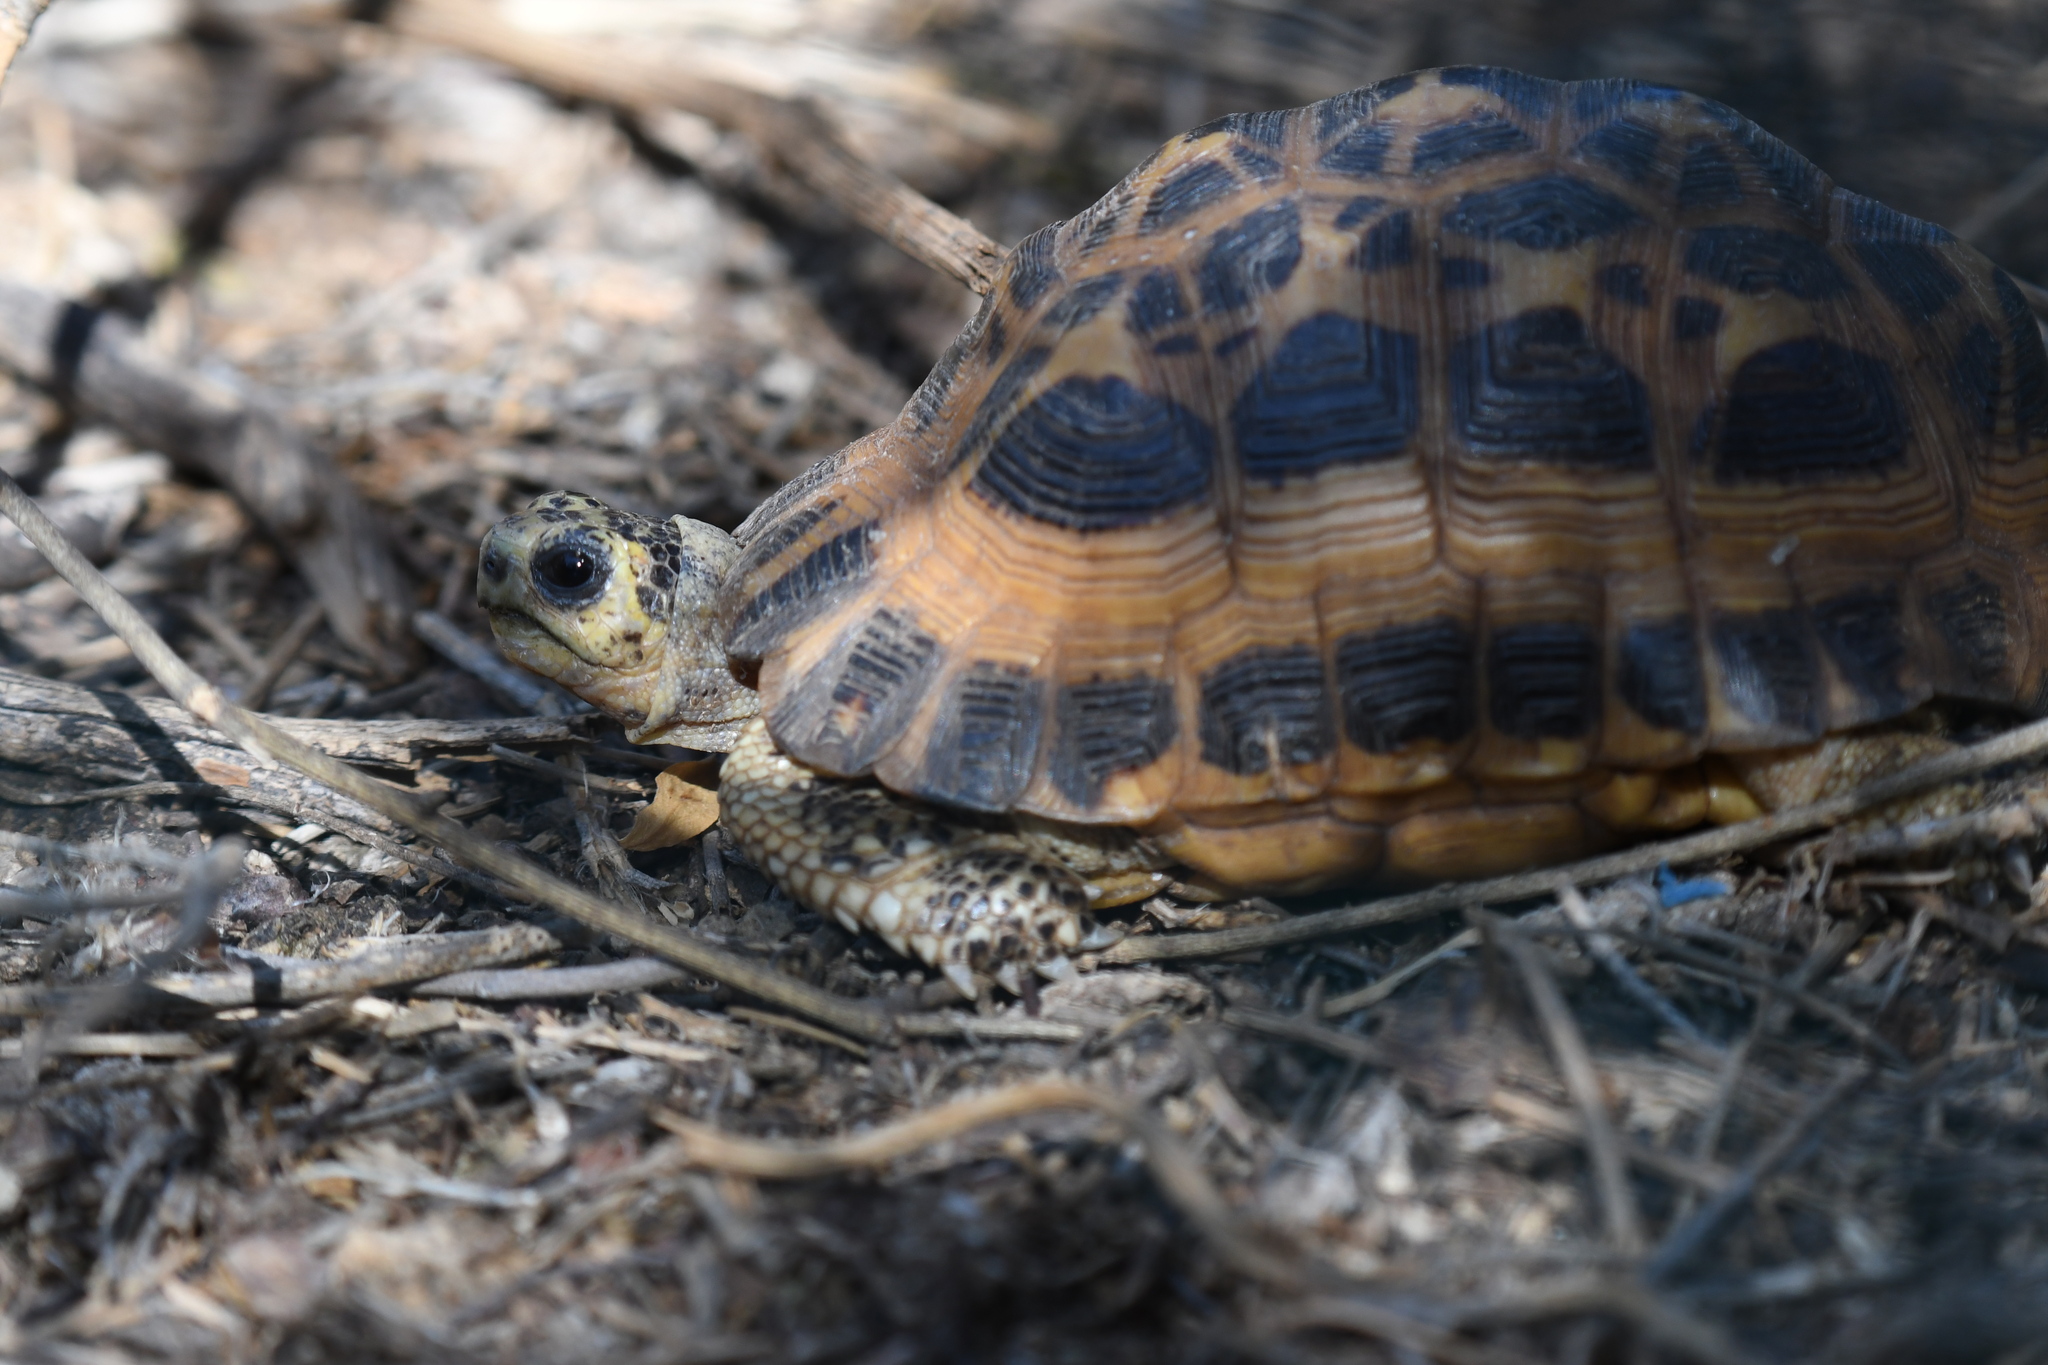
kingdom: Animalia
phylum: Chordata
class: Testudines
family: Testudinidae
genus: Pyxis
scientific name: Pyxis arachnoides
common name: Common spider tortoise
